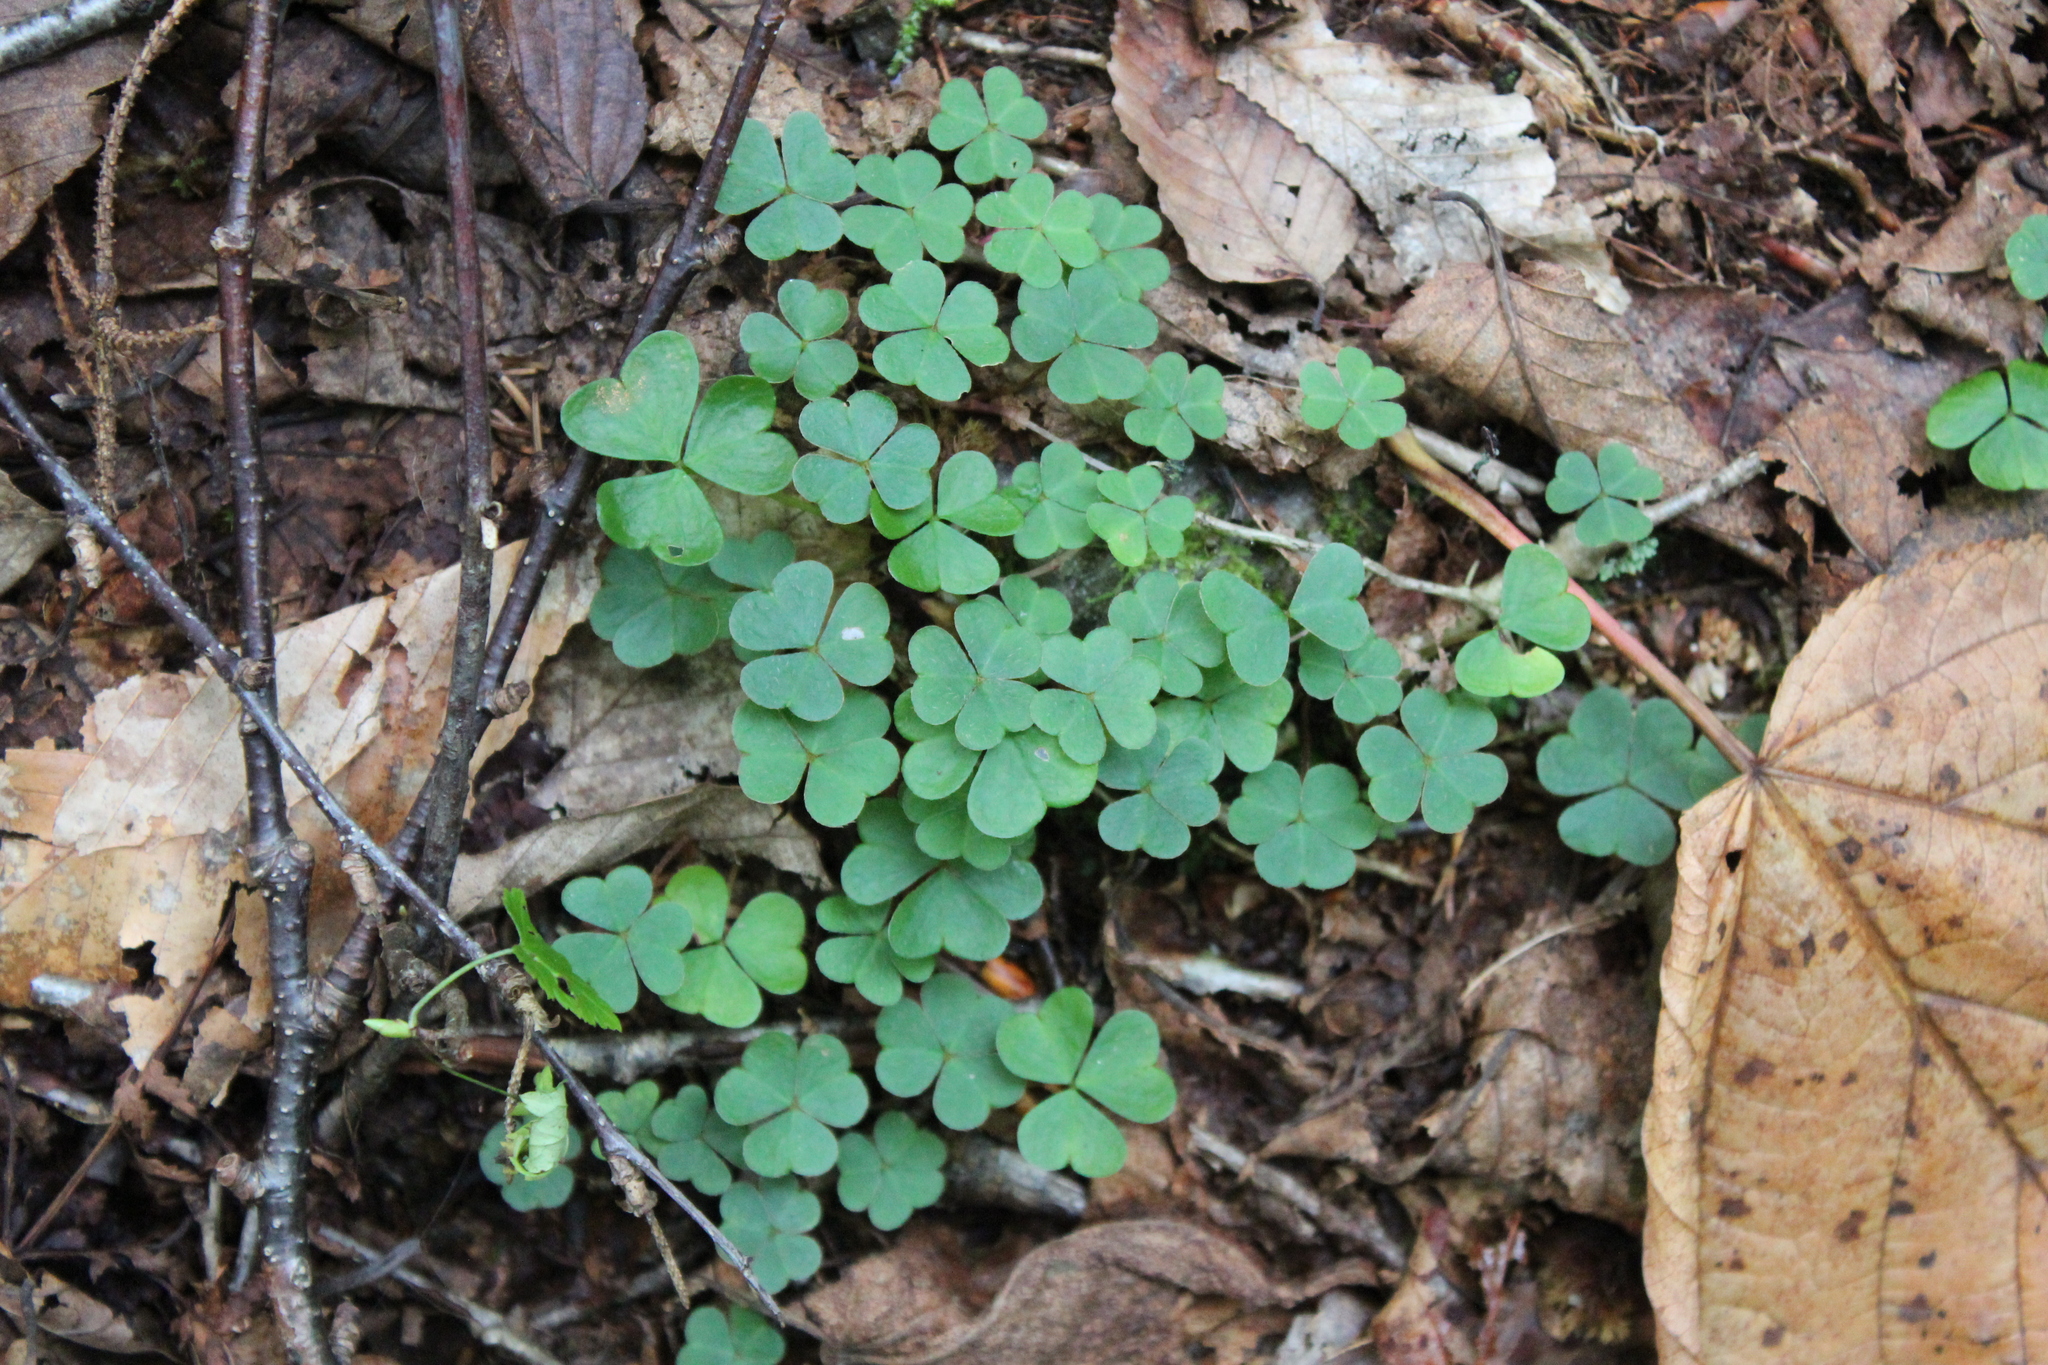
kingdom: Plantae
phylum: Tracheophyta
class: Magnoliopsida
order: Oxalidales
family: Oxalidaceae
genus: Oxalis
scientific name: Oxalis montana
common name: American wood-sorrel
